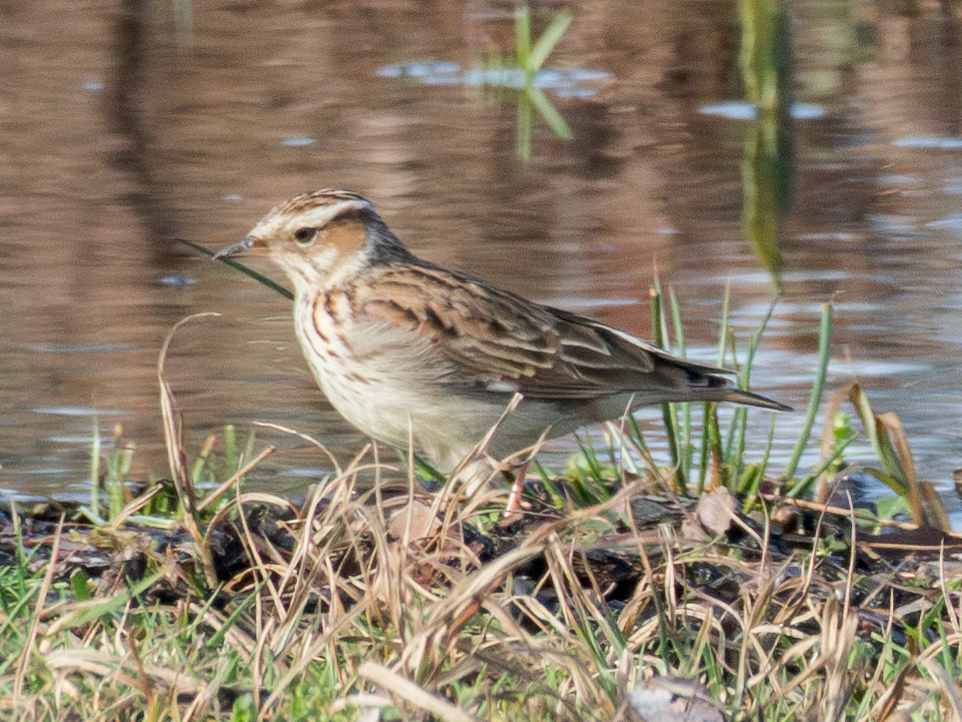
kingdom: Animalia
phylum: Chordata
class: Aves
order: Passeriformes
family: Alaudidae
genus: Lullula
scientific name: Lullula arborea
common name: Woodlark
